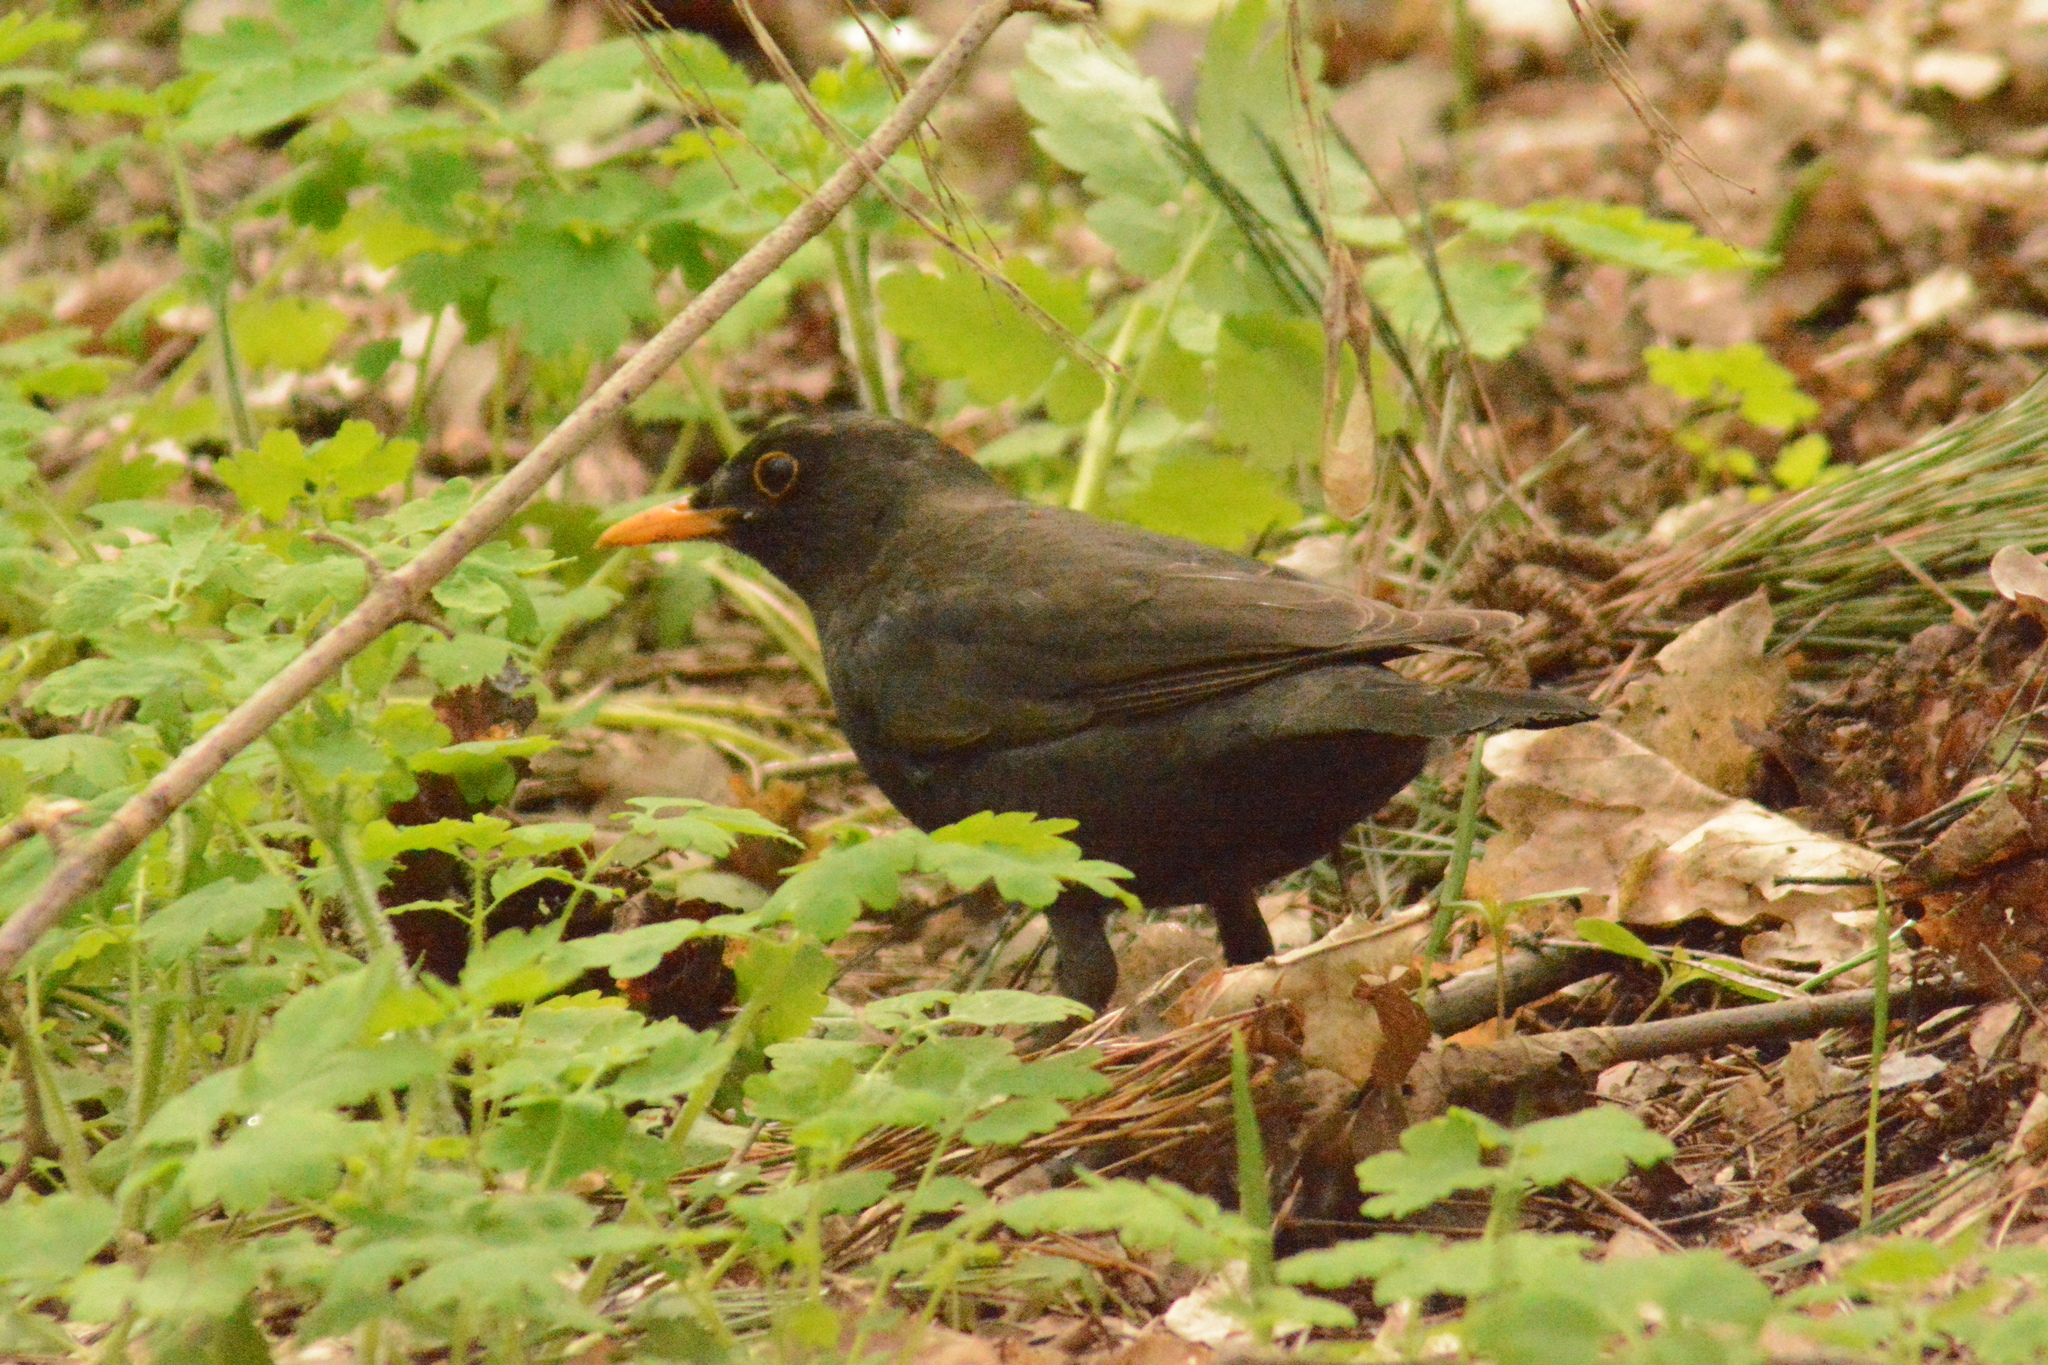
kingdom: Animalia
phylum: Chordata
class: Aves
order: Passeriformes
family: Turdidae
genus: Turdus
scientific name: Turdus merula
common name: Common blackbird
